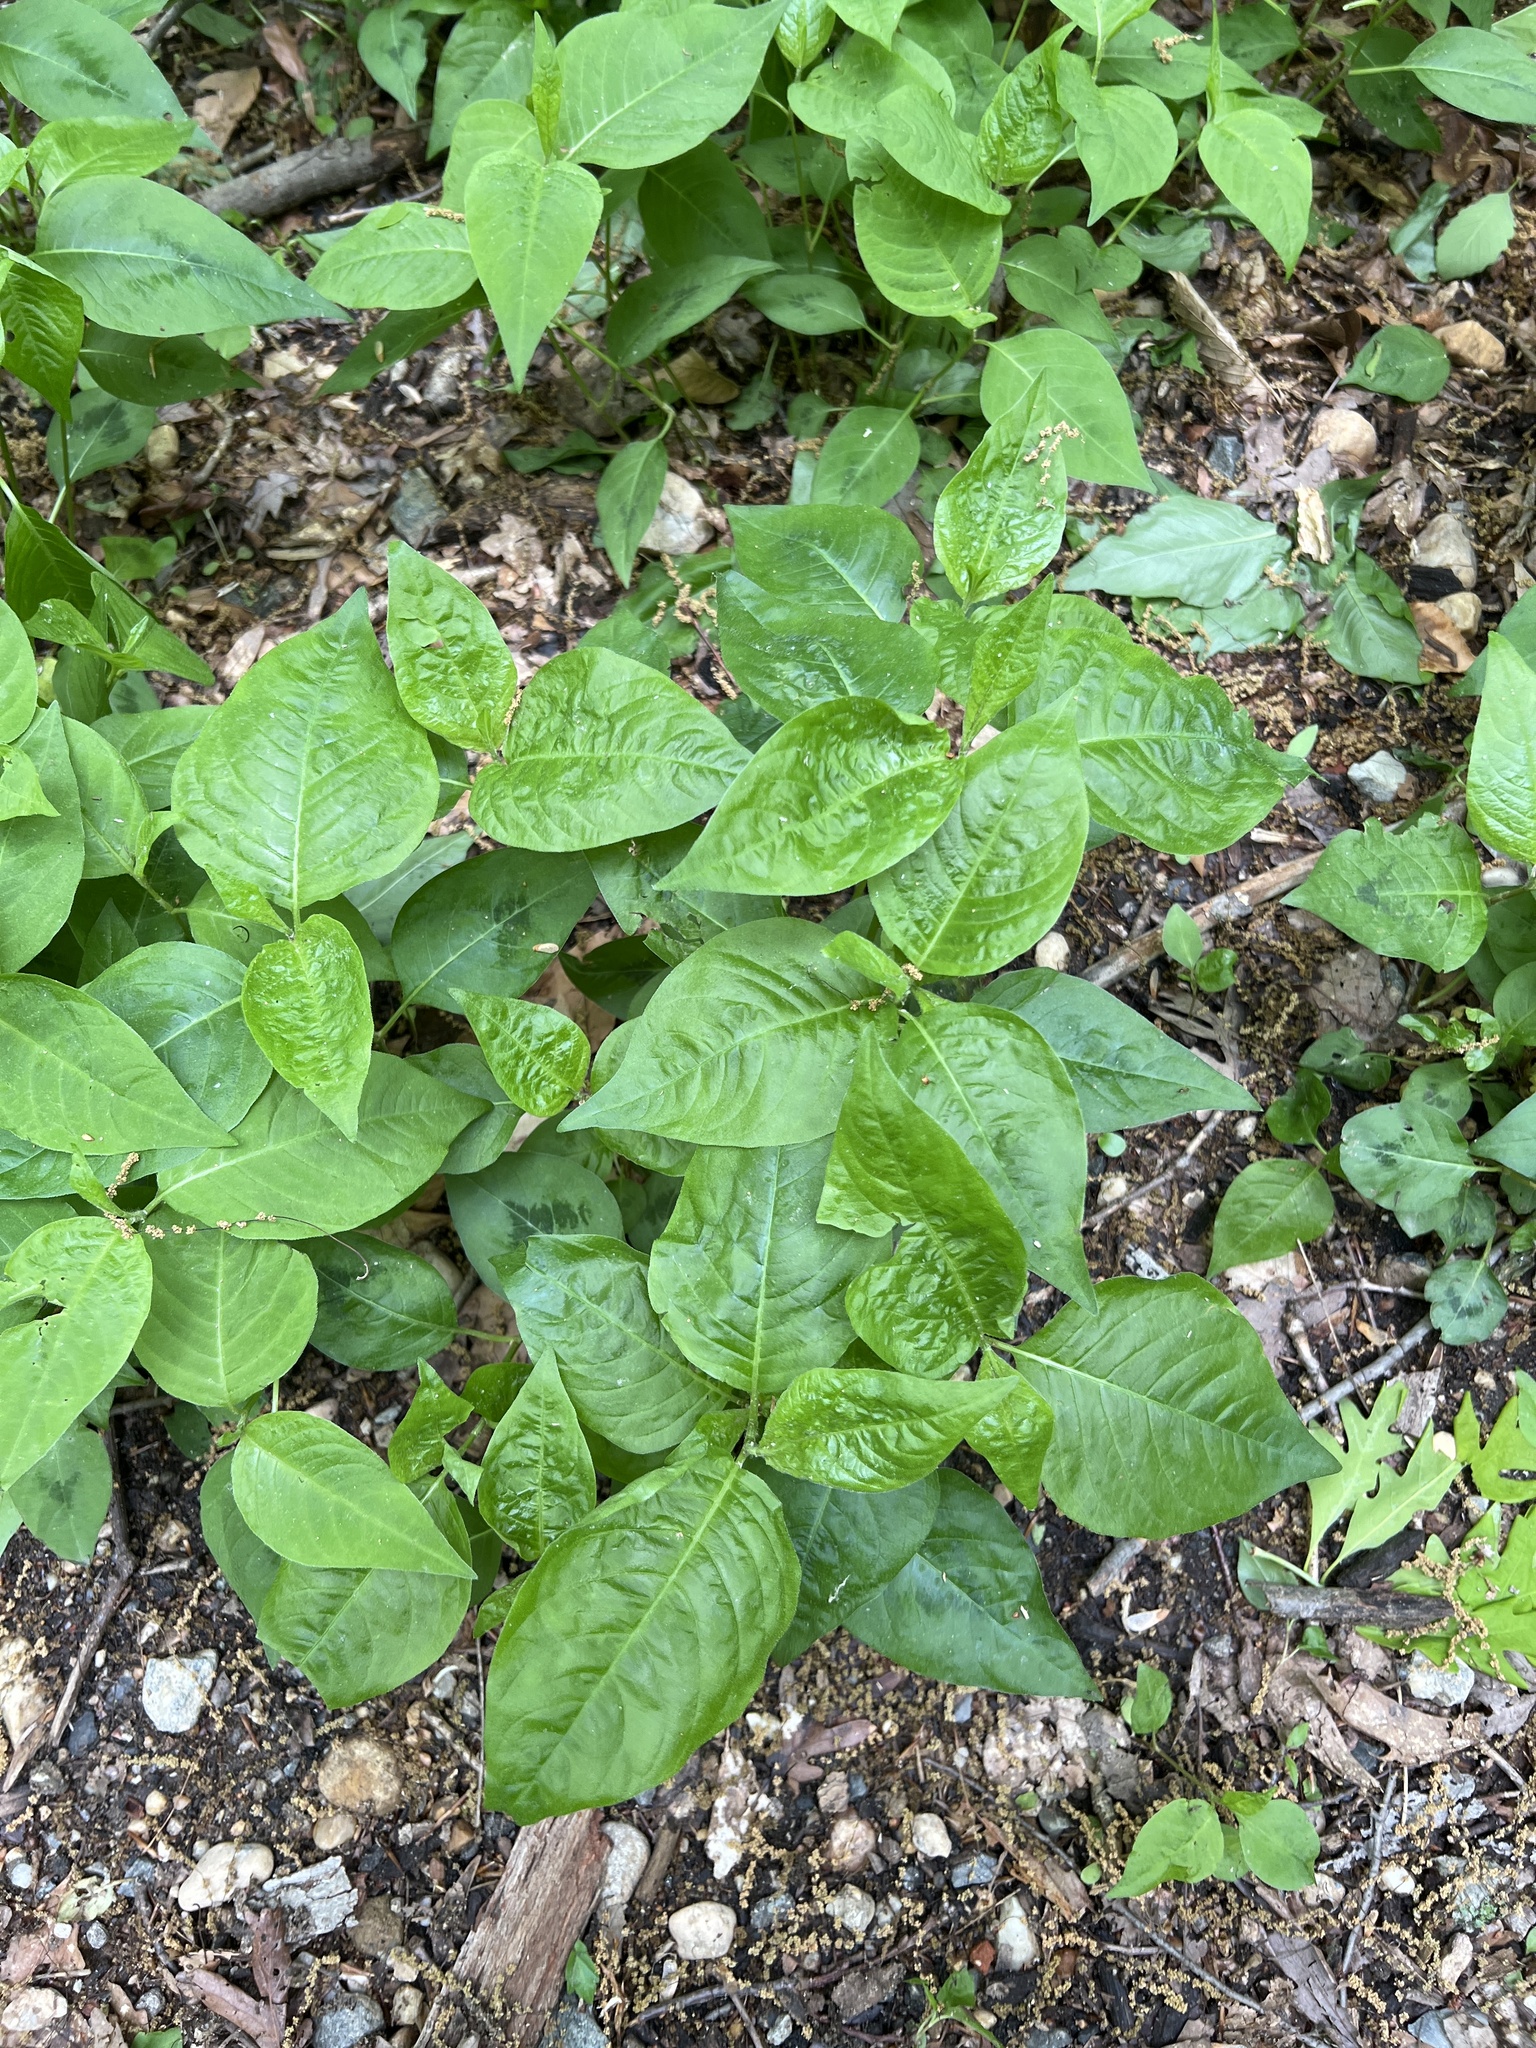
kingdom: Plantae
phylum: Tracheophyta
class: Magnoliopsida
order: Caryophyllales
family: Polygonaceae
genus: Persicaria
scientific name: Persicaria virginiana
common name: Jumpseed
